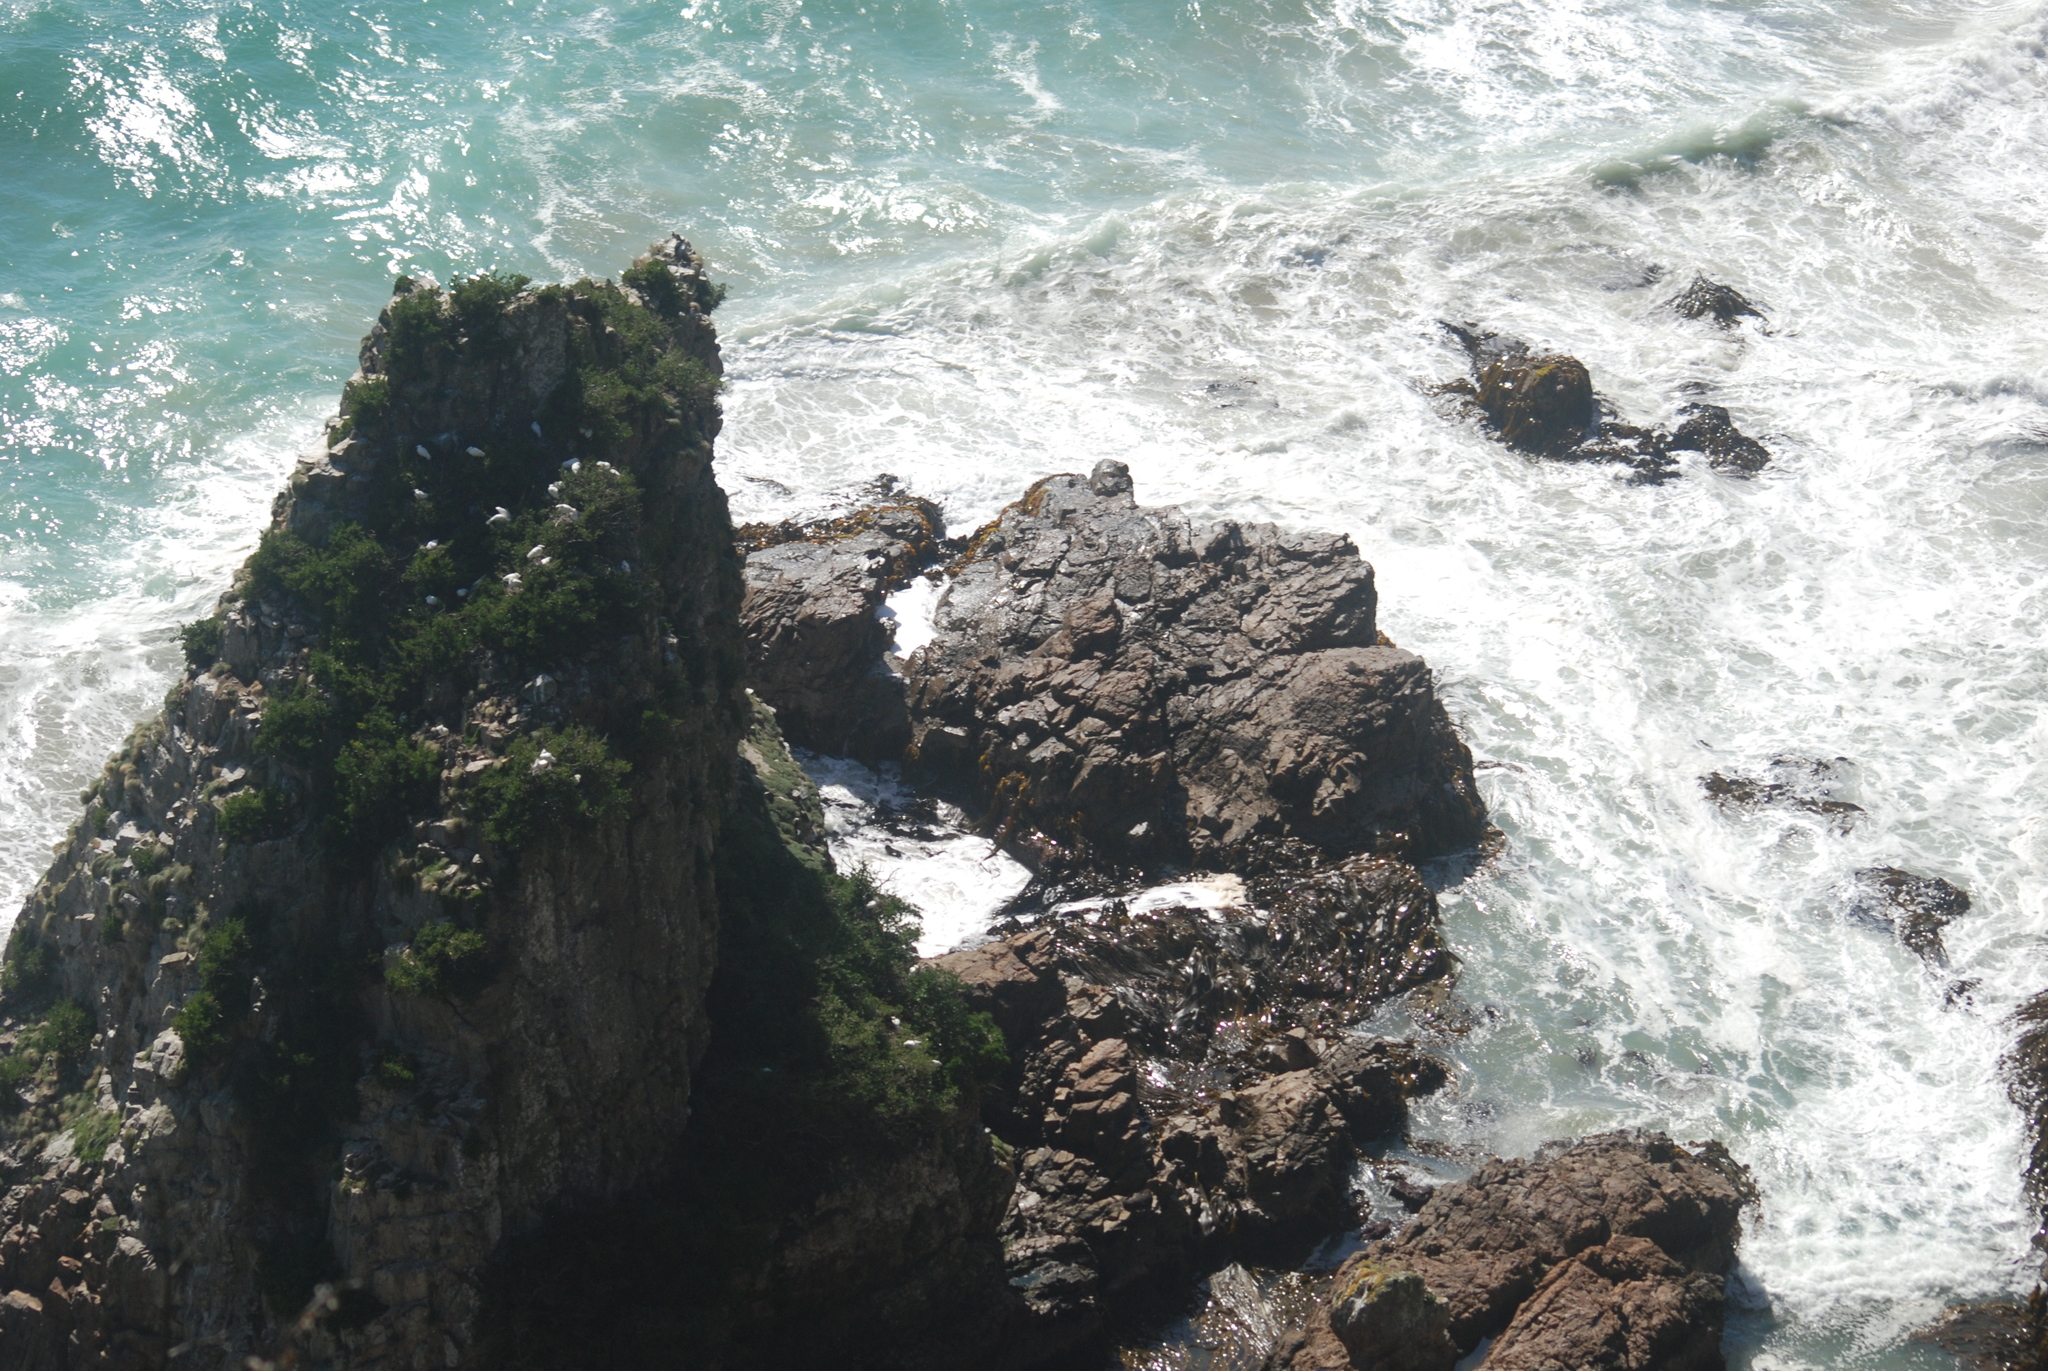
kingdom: Animalia
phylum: Chordata
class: Aves
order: Pelecaniformes
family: Threskiornithidae
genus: Platalea
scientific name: Platalea regia
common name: Royal spoonbill
